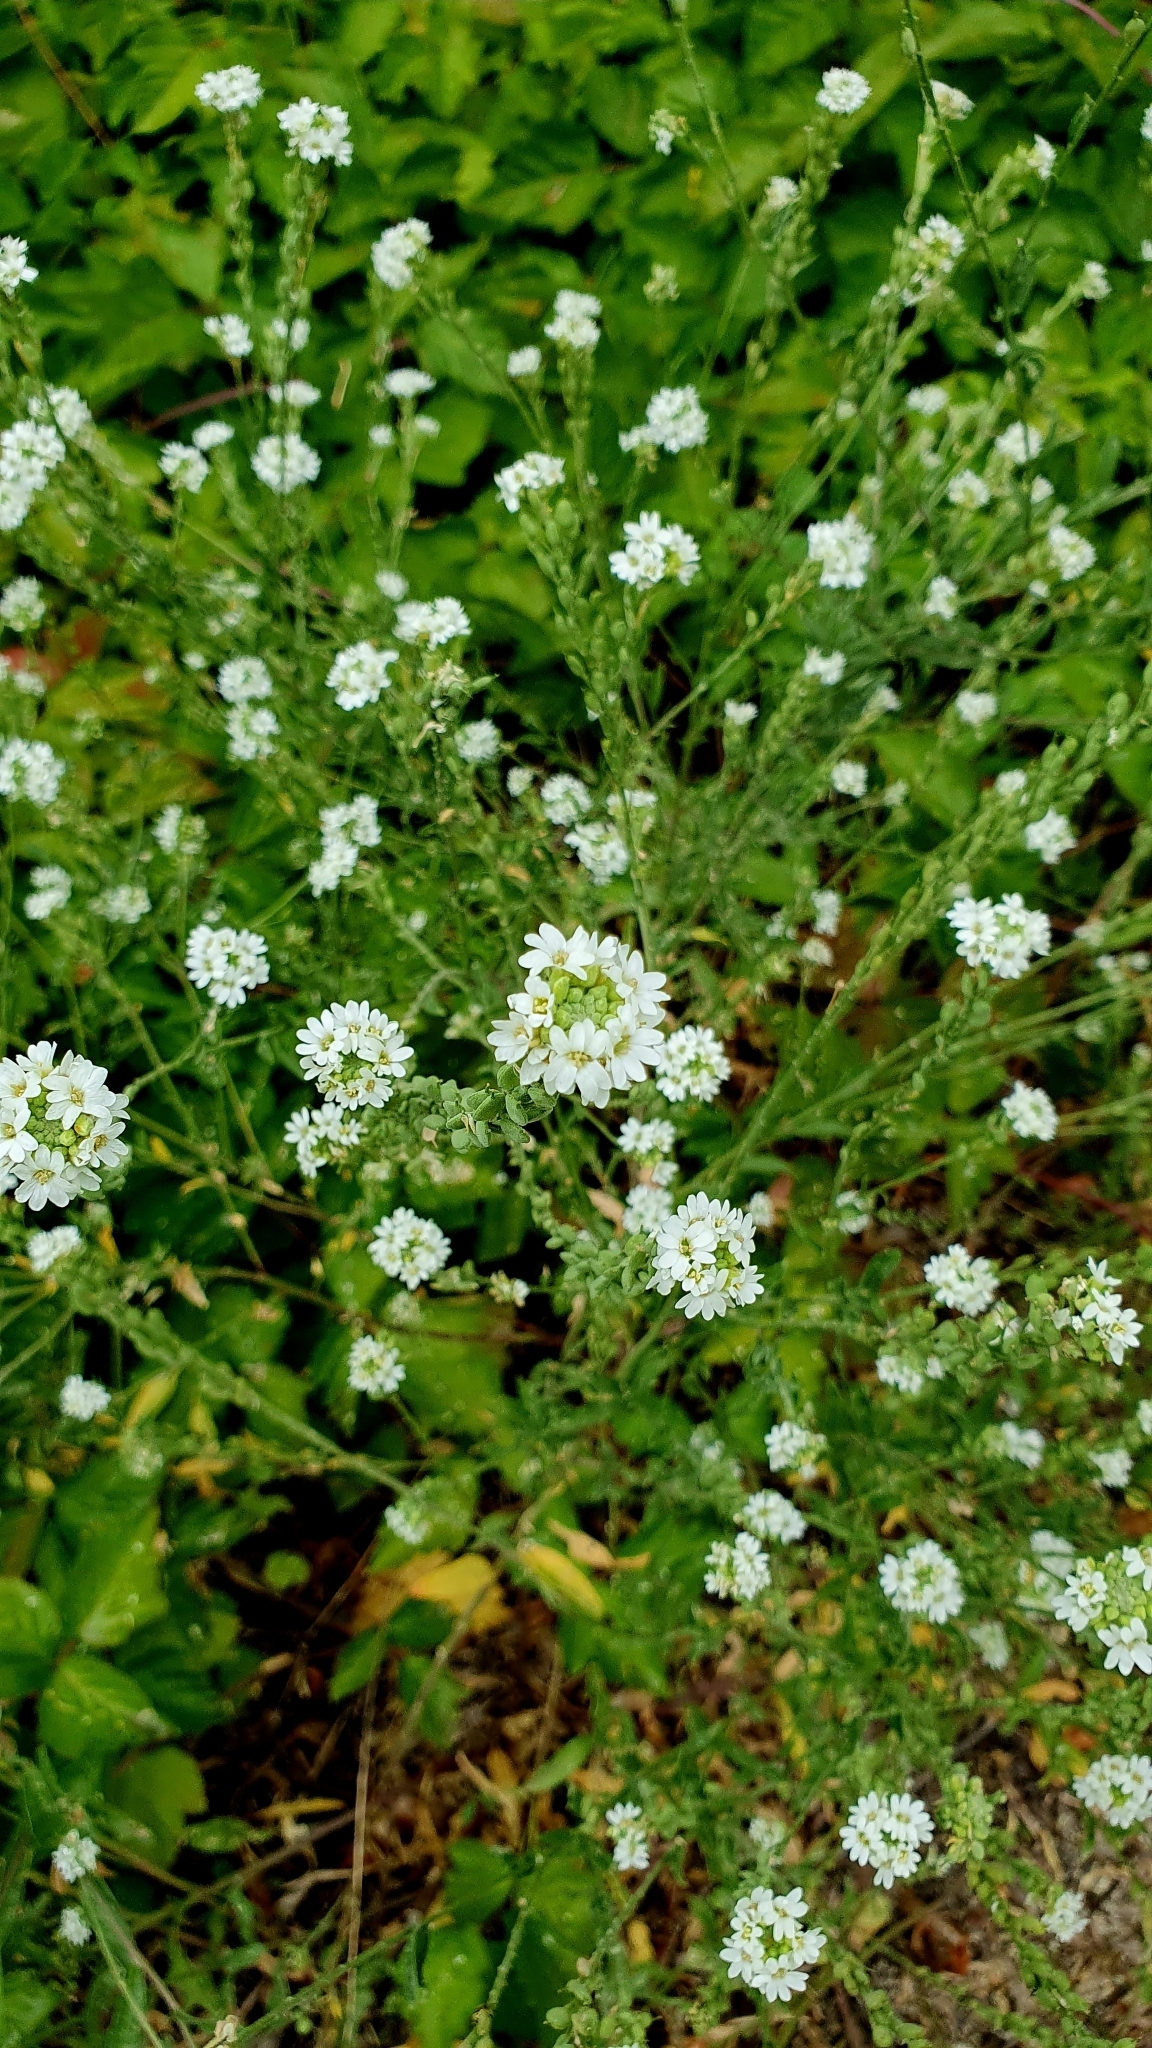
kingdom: Plantae
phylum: Tracheophyta
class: Magnoliopsida
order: Brassicales
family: Brassicaceae
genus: Berteroa
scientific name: Berteroa incana
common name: Hoary alison
